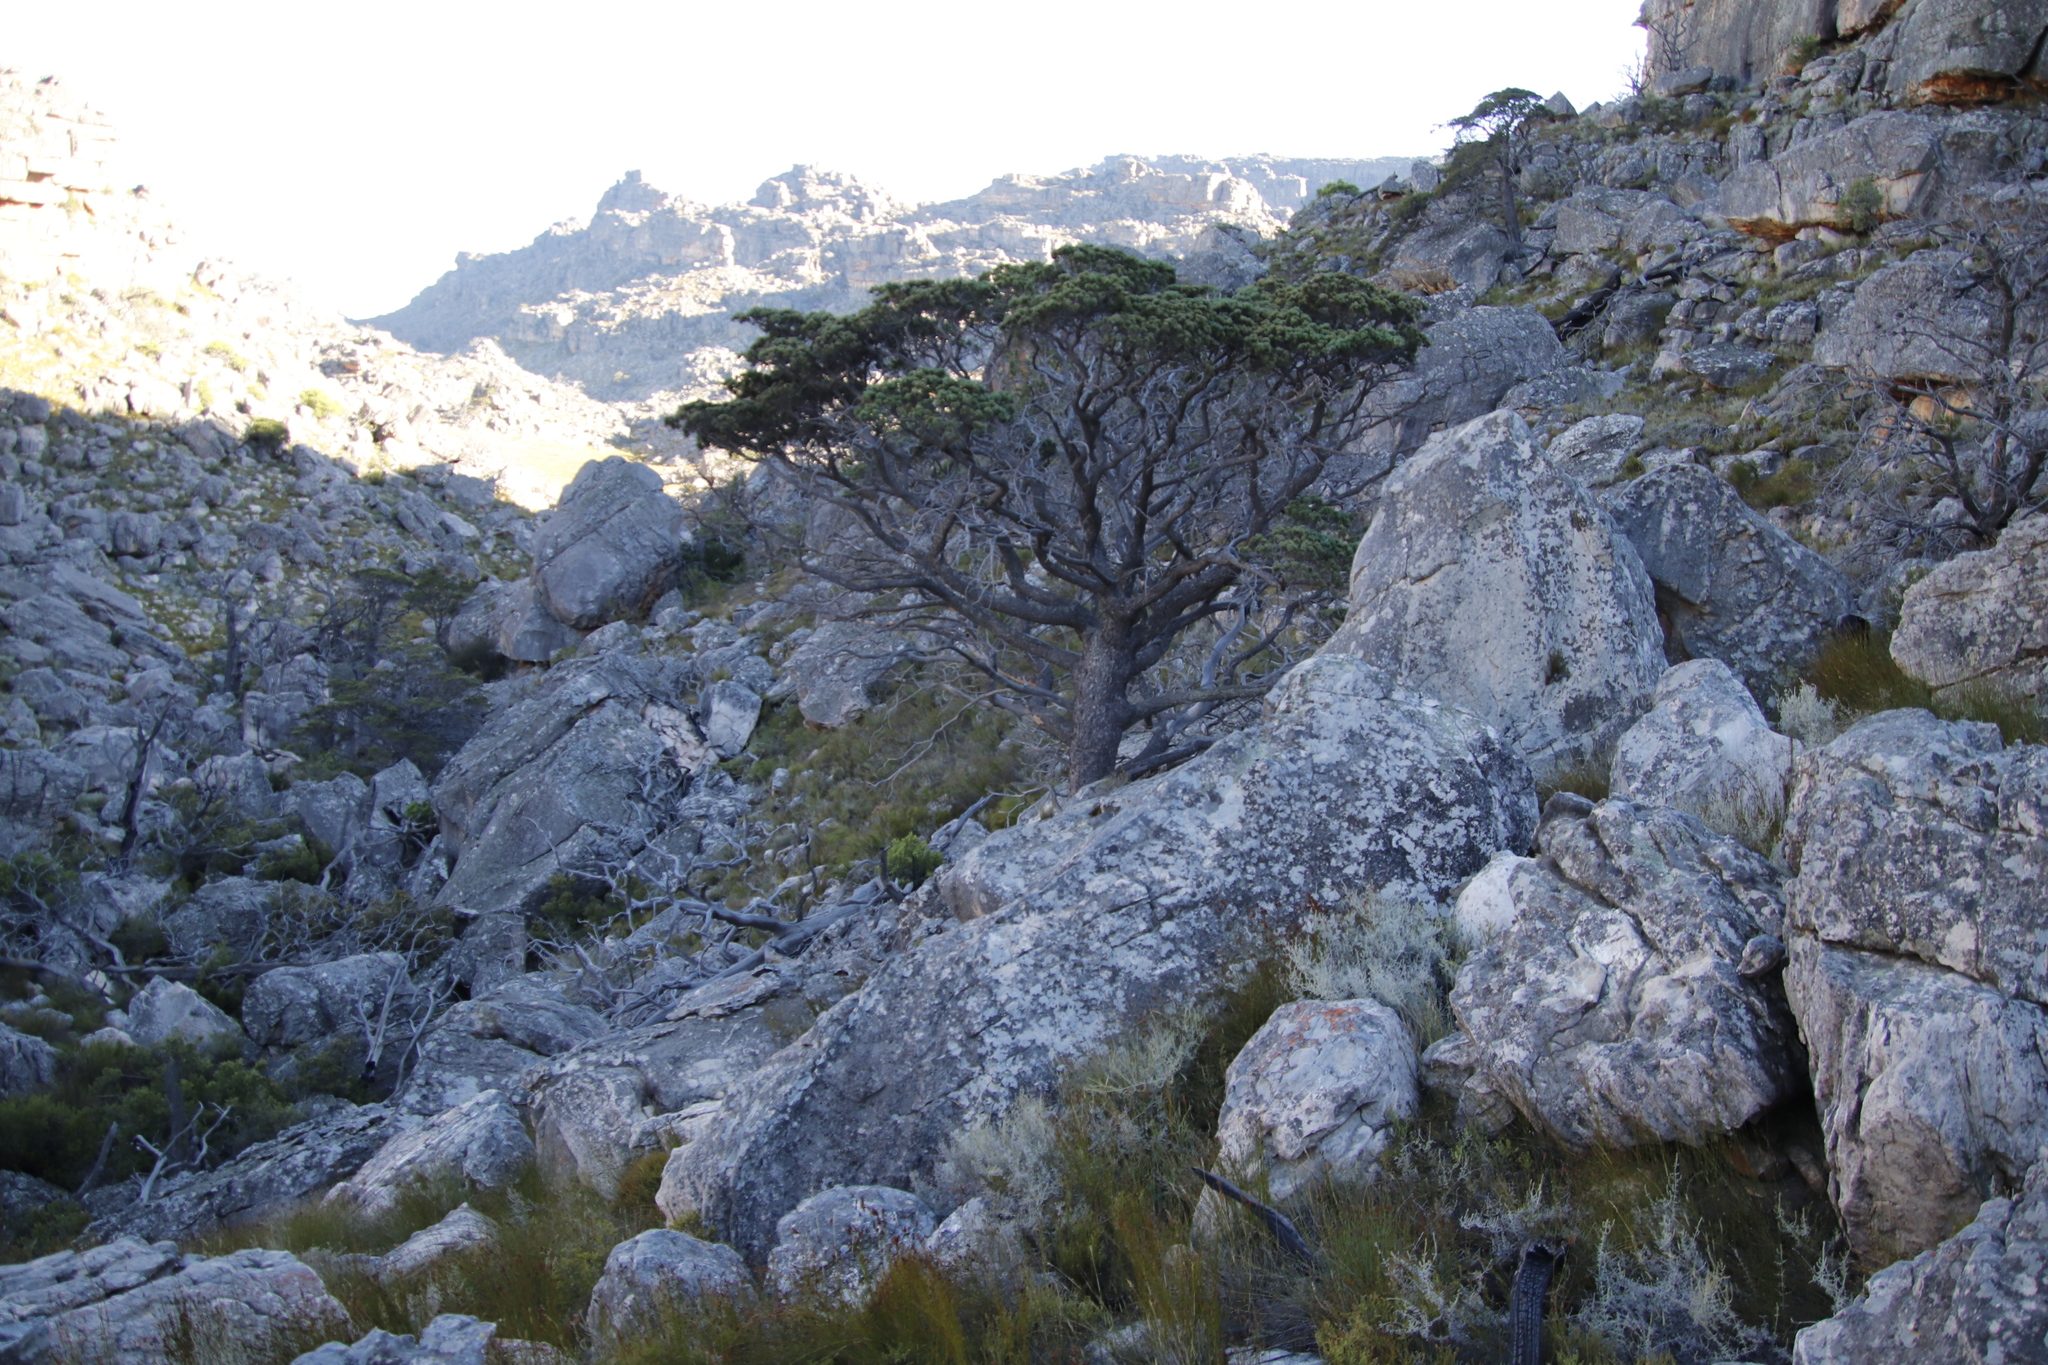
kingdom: Plantae
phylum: Tracheophyta
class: Pinopsida
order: Pinales
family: Cupressaceae
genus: Widdringtonia
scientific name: Widdringtonia nodiflora
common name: Cape cypress
